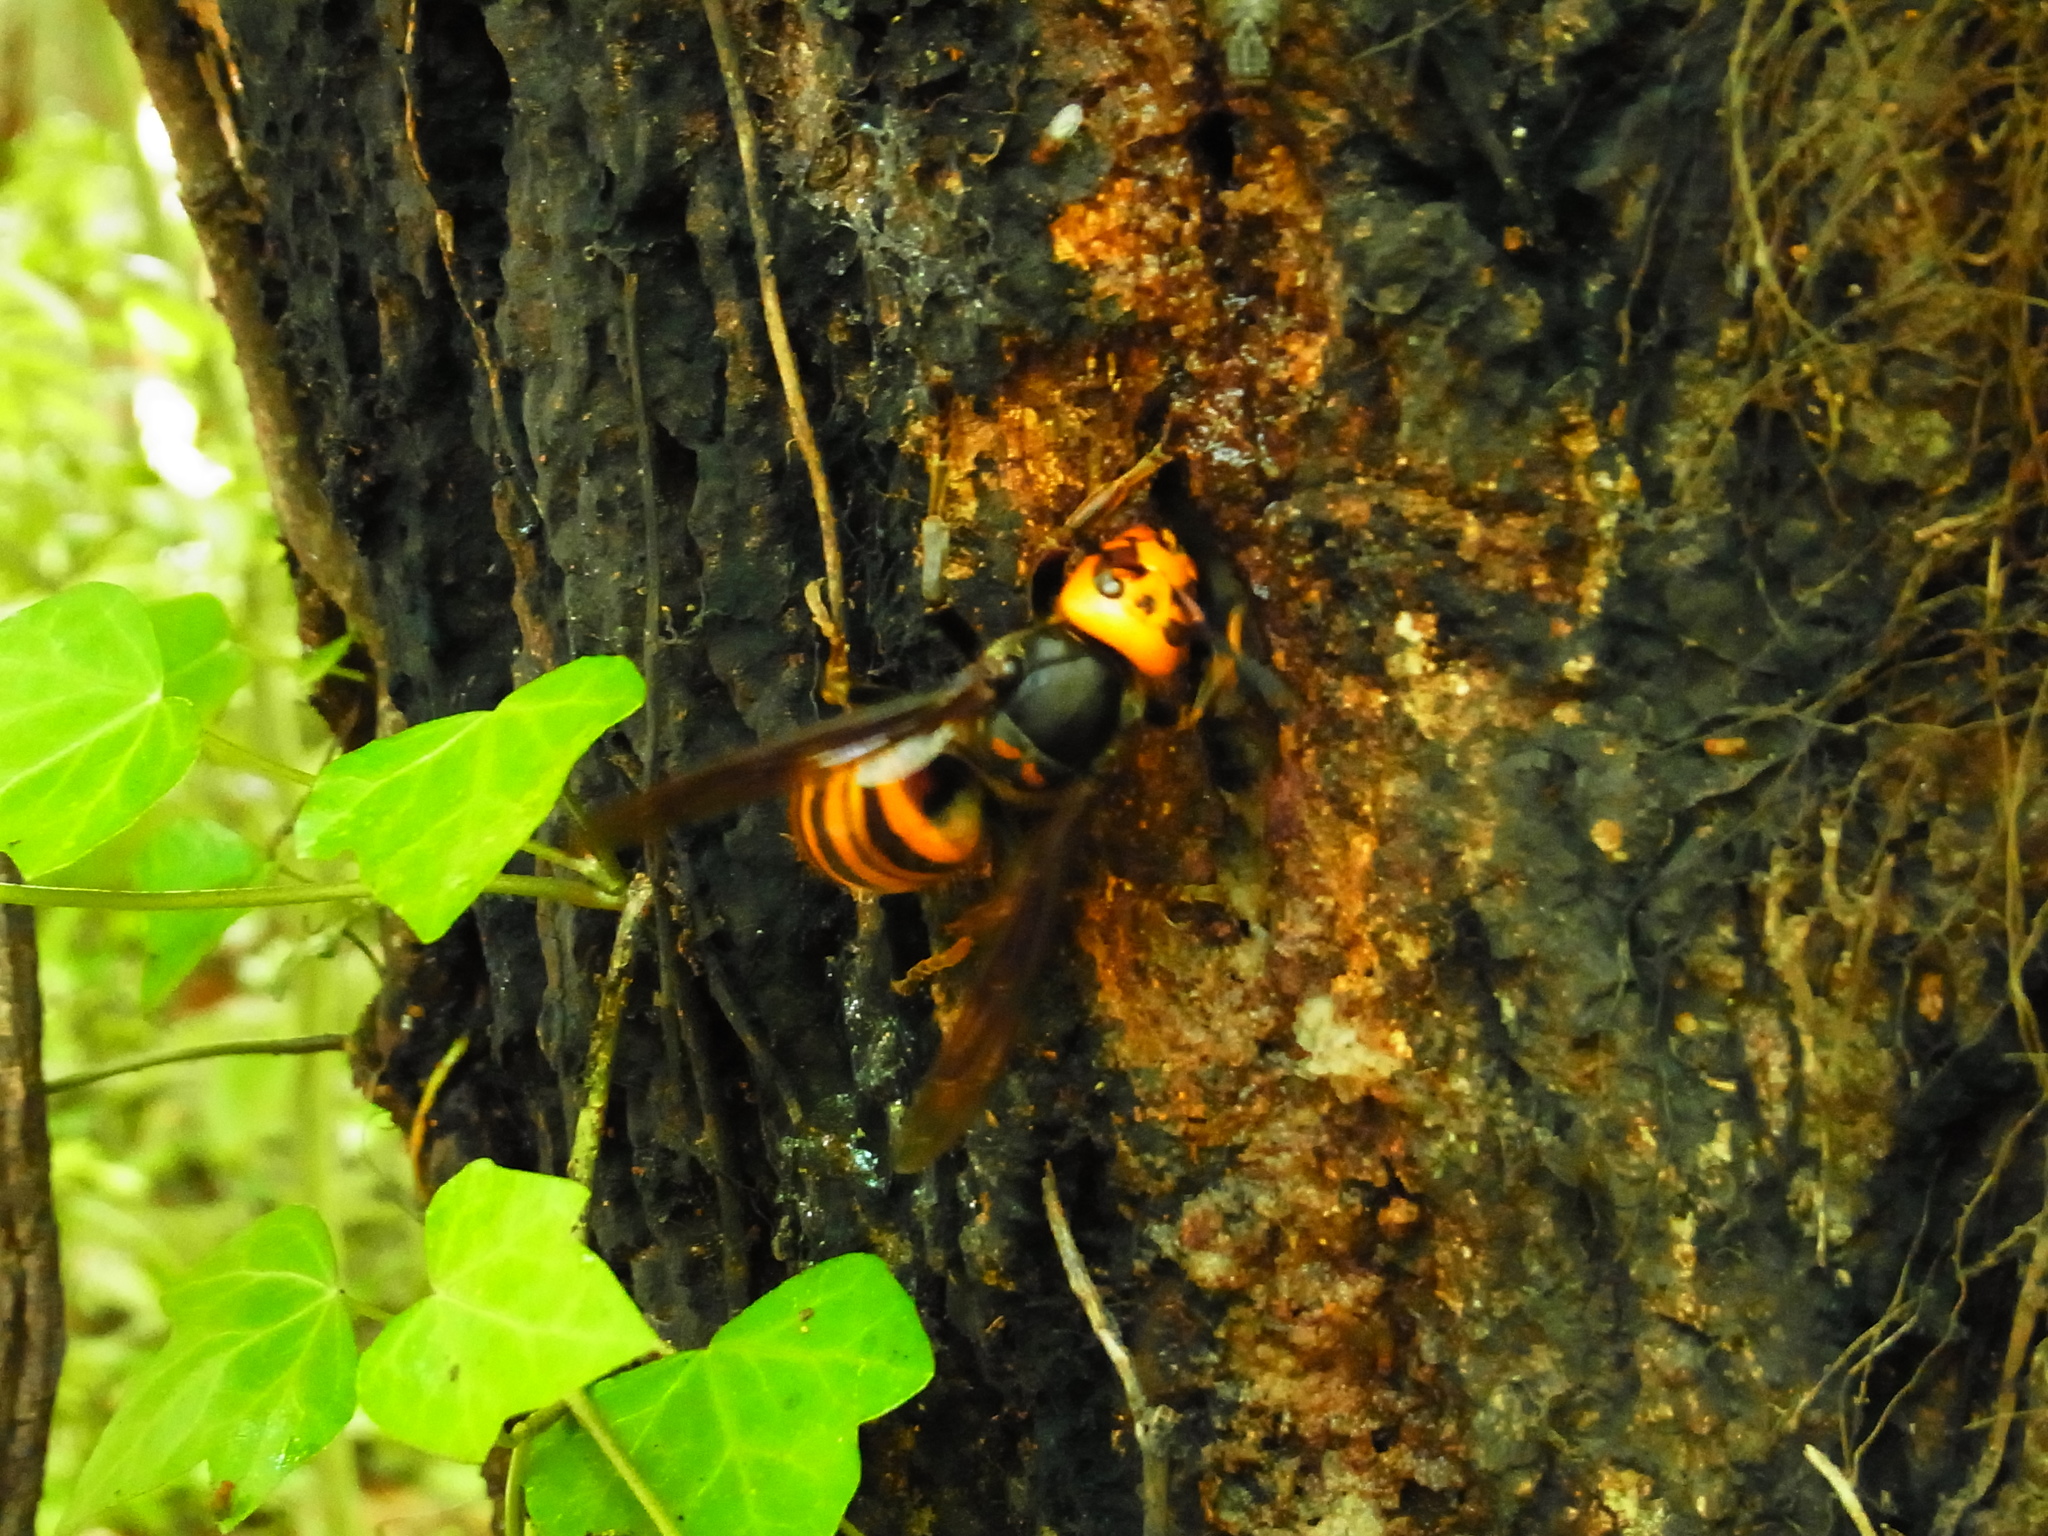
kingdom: Animalia
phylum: Arthropoda
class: Insecta
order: Hymenoptera
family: Vespidae
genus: Vespa
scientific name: Vespa mandarinia
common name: Asian giant hornet
